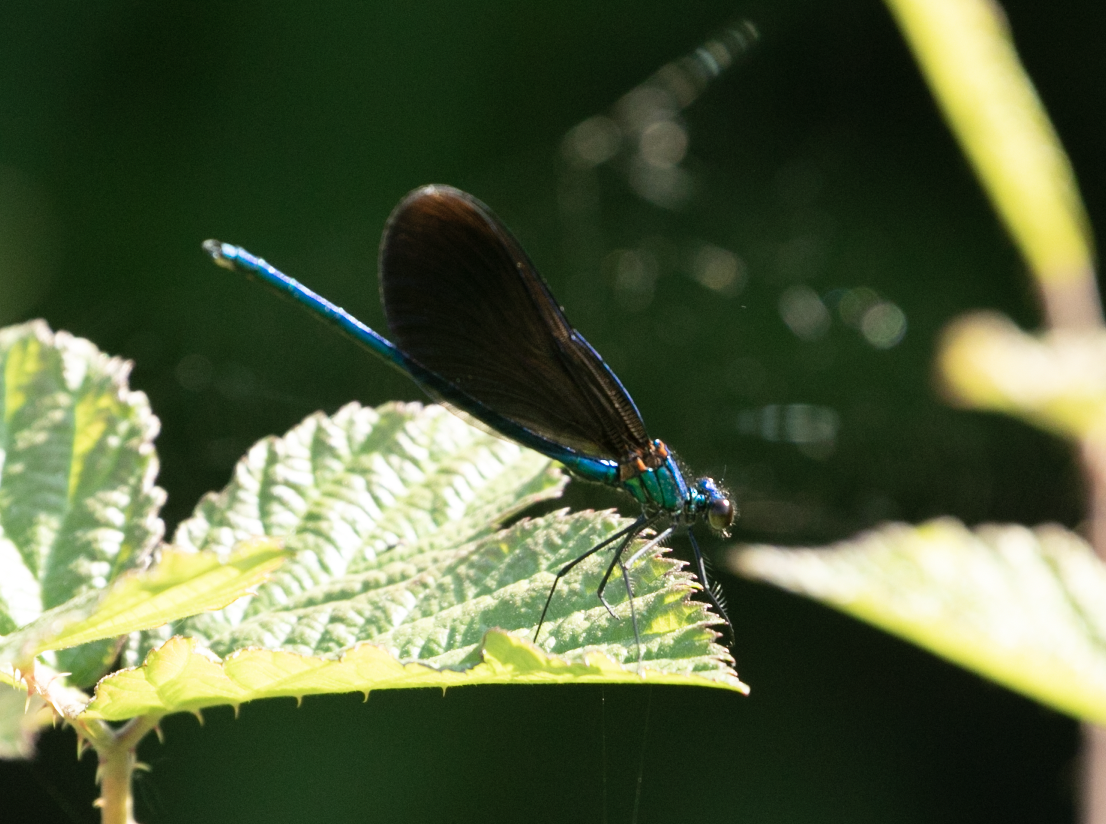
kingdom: Animalia
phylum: Arthropoda
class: Insecta
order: Odonata
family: Calopterygidae
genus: Calopteryx
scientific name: Calopteryx virgo
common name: Beautiful demoiselle
